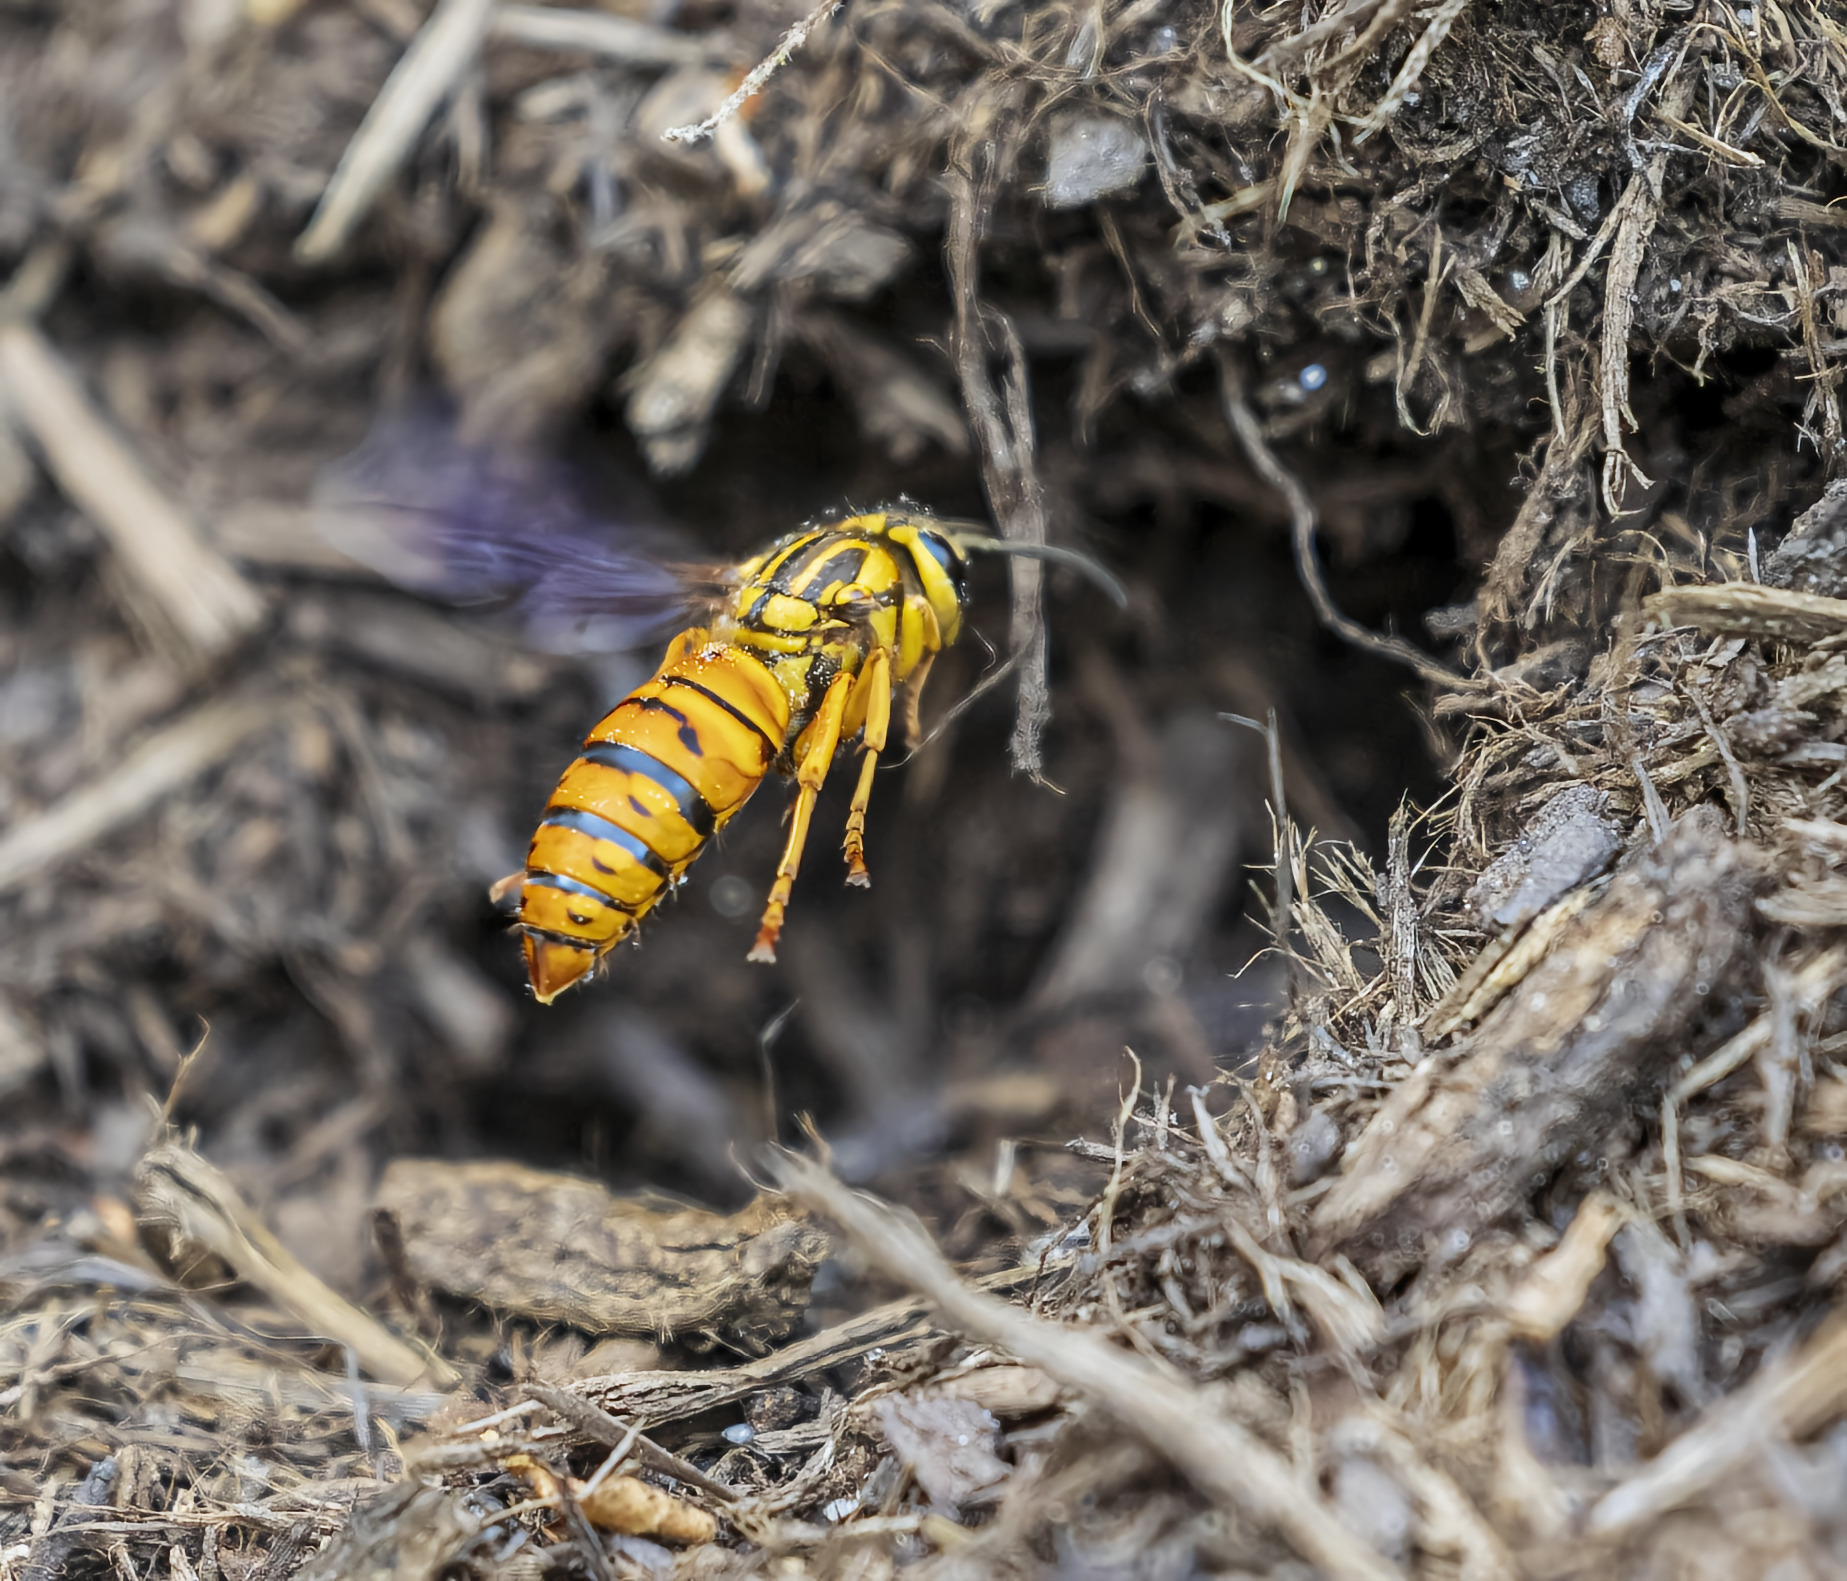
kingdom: Animalia
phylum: Arthropoda
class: Insecta
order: Hymenoptera
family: Vespidae
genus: Vespula
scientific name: Vespula squamosa
